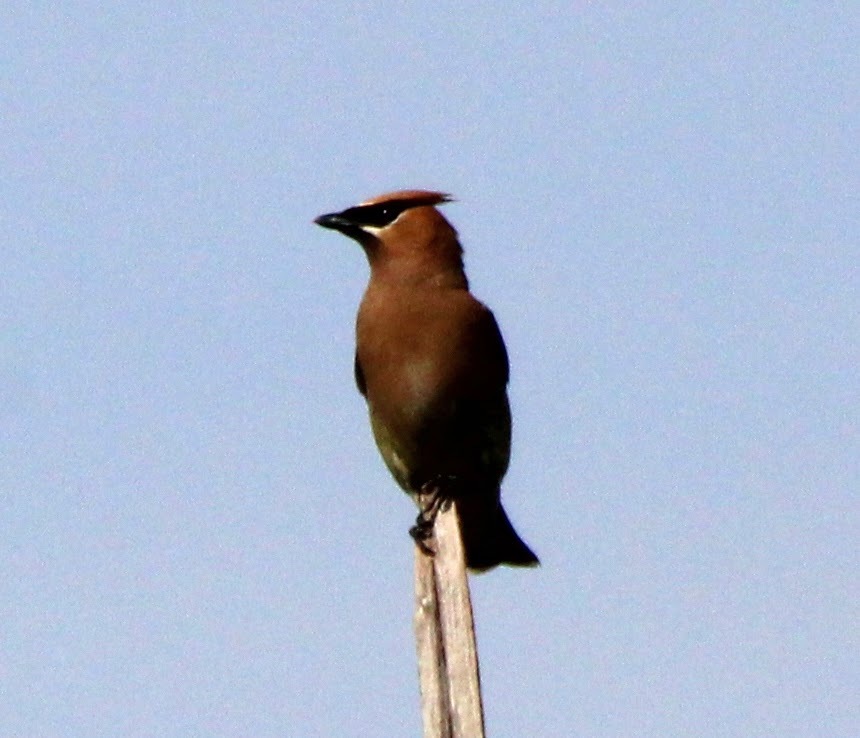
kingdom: Animalia
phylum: Chordata
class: Aves
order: Passeriformes
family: Bombycillidae
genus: Bombycilla
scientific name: Bombycilla cedrorum
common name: Cedar waxwing
